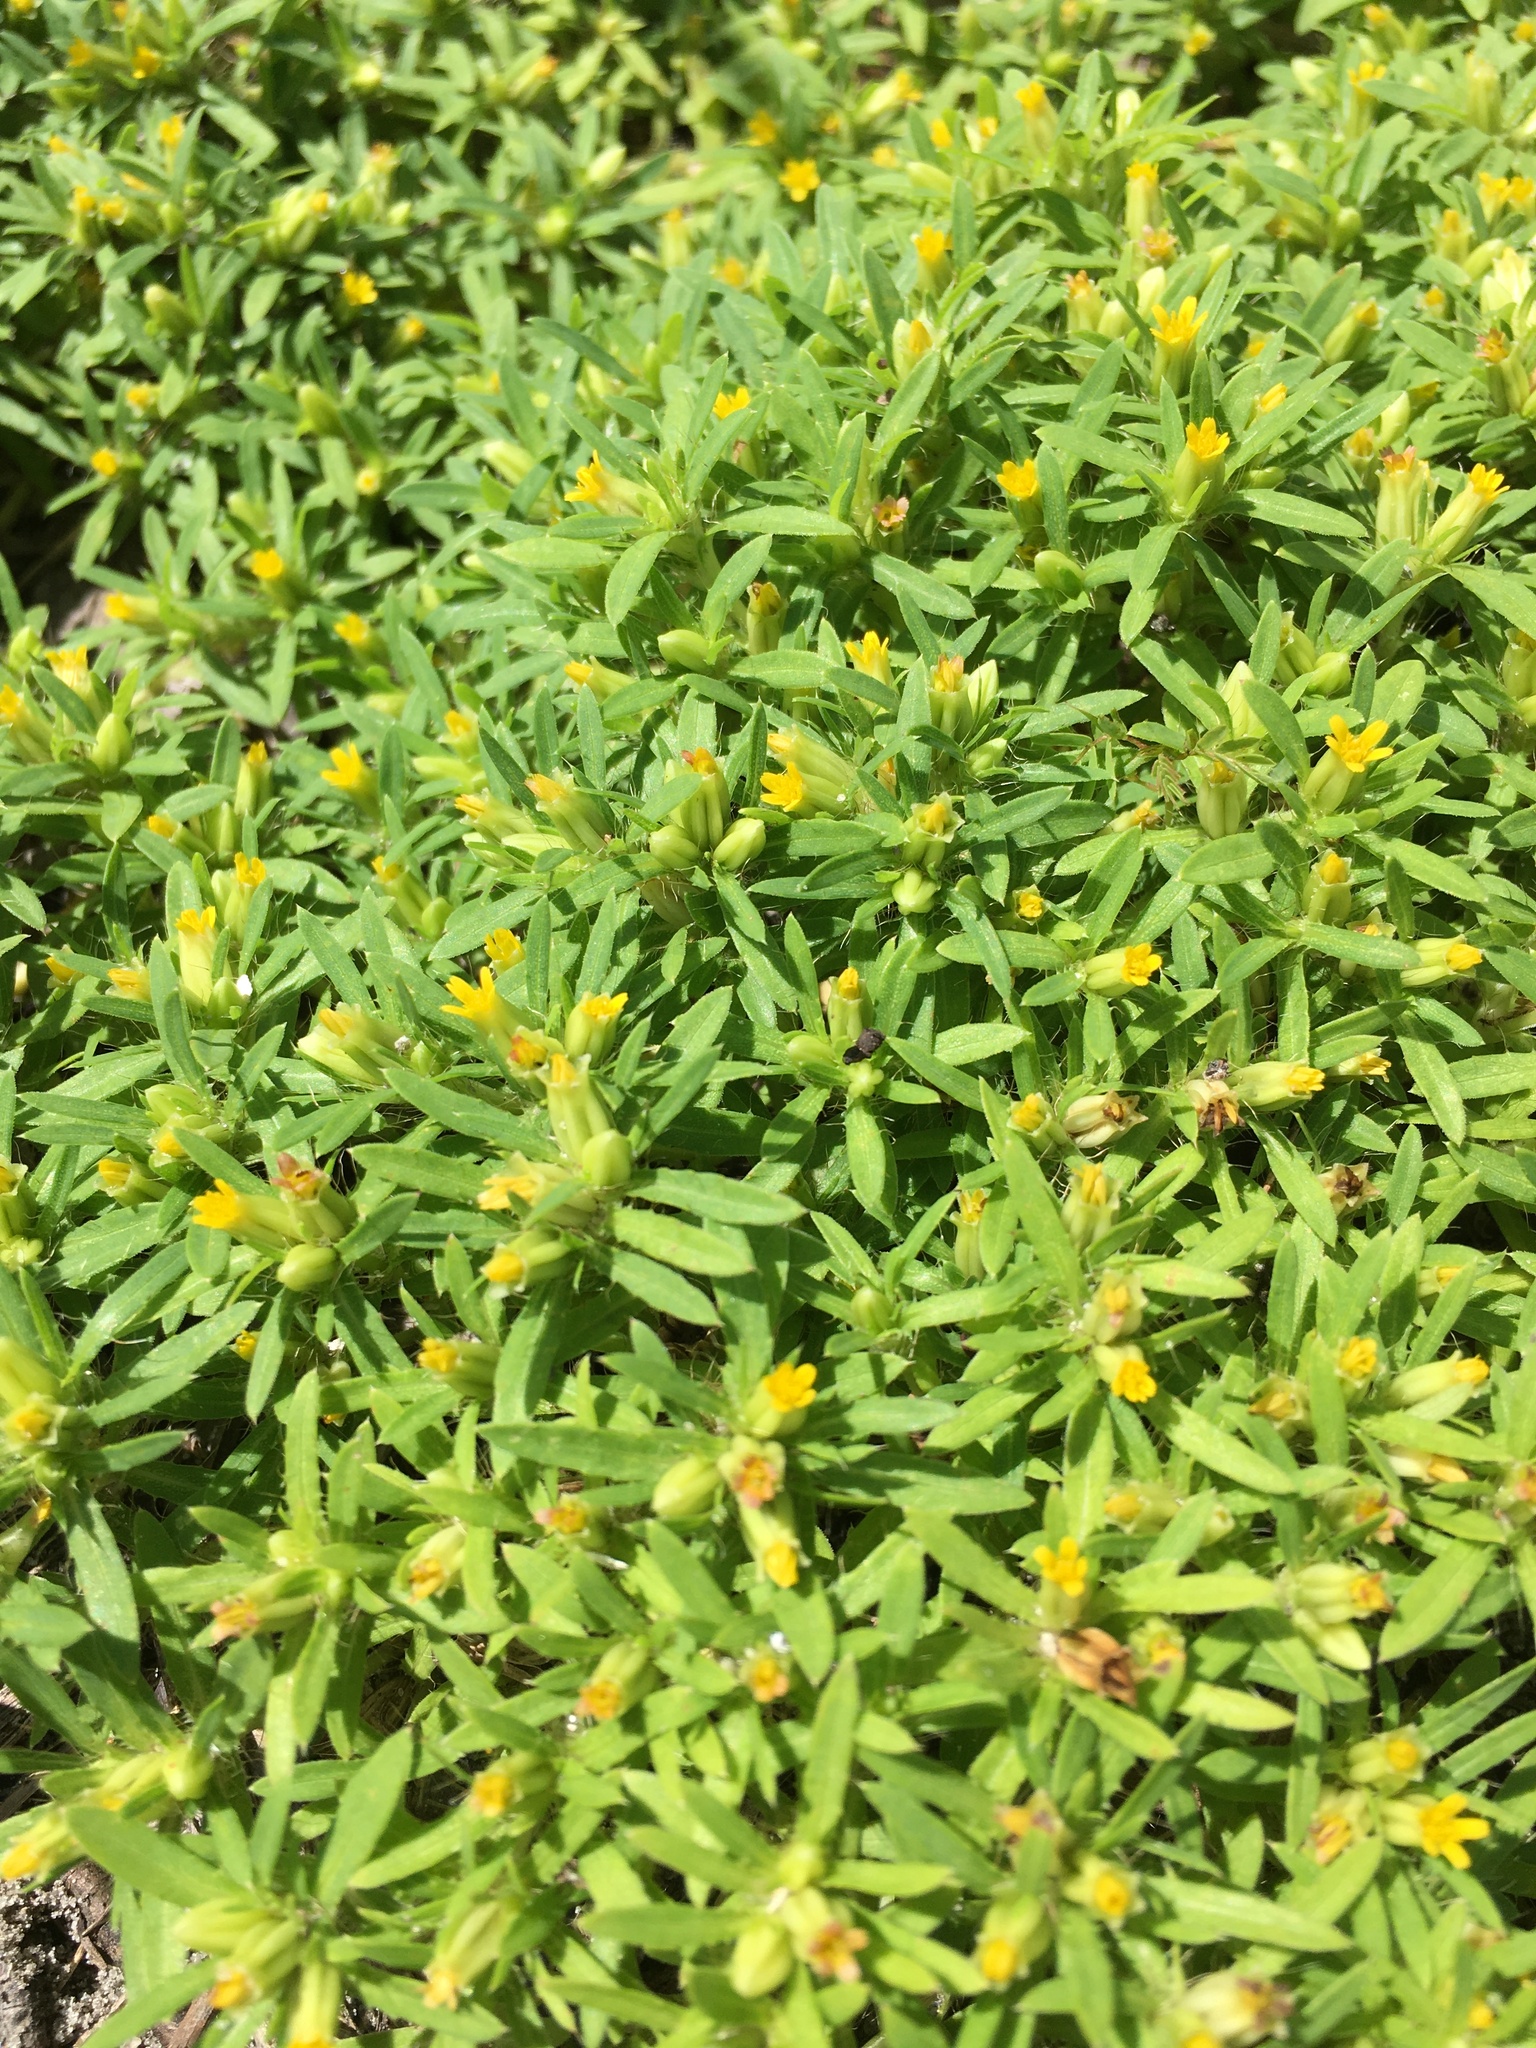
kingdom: Plantae
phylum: Tracheophyta
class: Magnoliopsida
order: Asterales
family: Asteraceae
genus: Pectis
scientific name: Pectis prostrata
